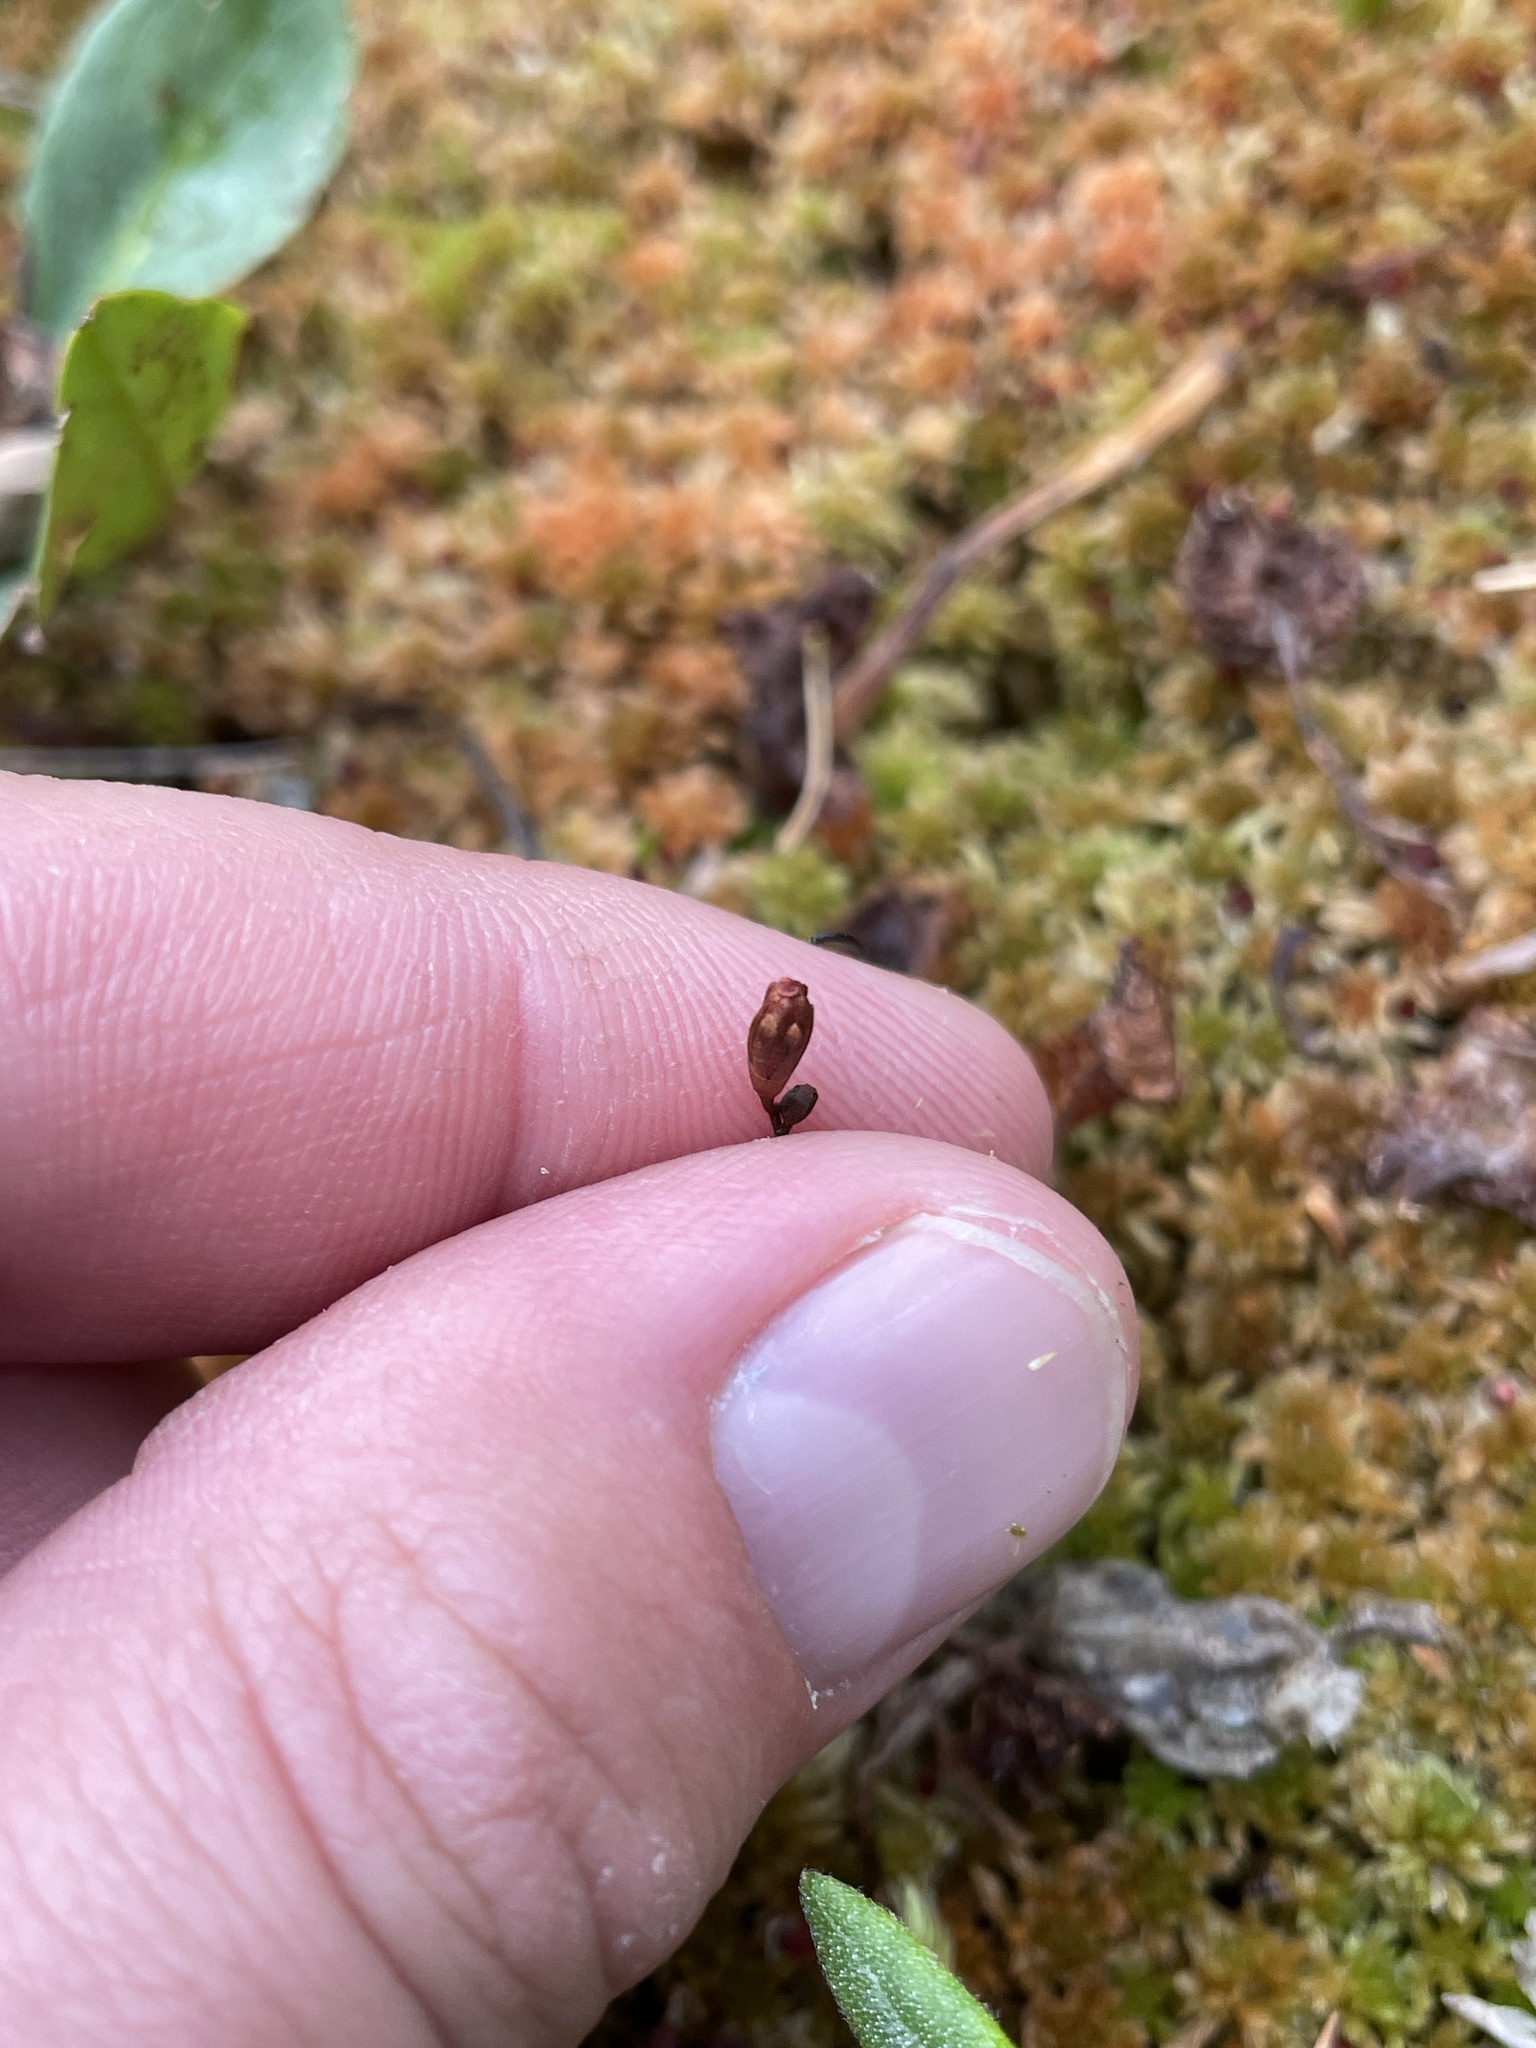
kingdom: Plantae
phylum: Tracheophyta
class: Magnoliopsida
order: Caryophyllales
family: Droseraceae
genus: Drosera
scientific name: Drosera rotundifolia
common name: Round-leaved sundew
